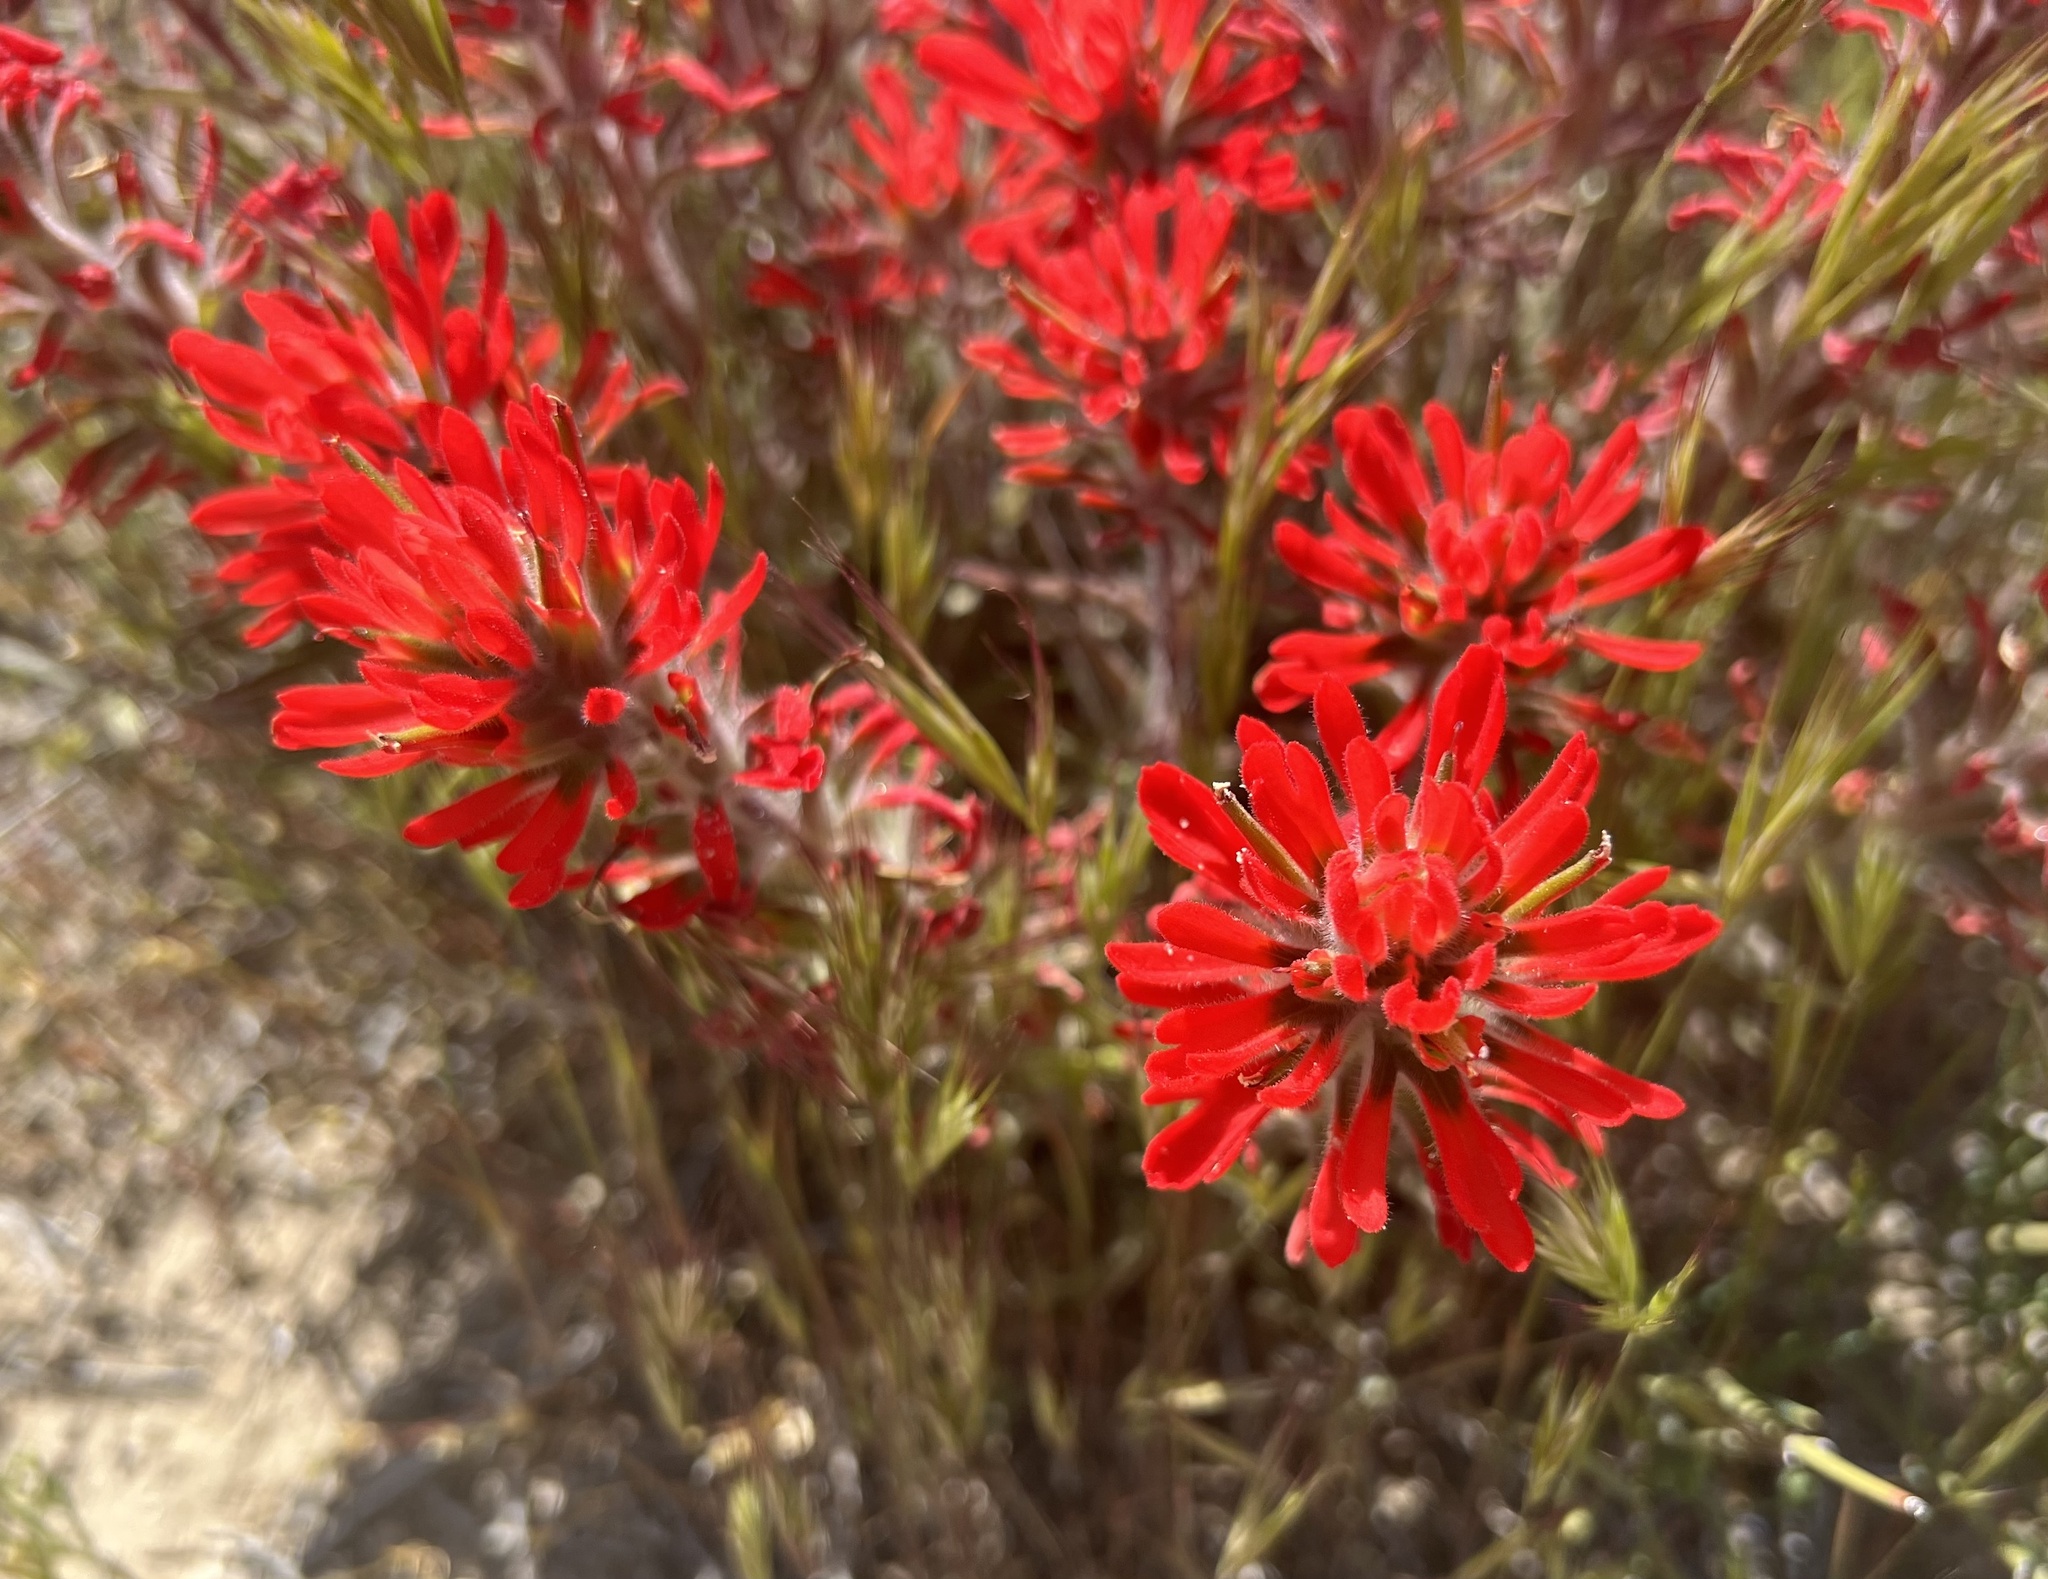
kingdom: Plantae
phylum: Tracheophyta
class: Magnoliopsida
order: Lamiales
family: Orobanchaceae
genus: Castilleja
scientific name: Castilleja chromosa
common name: Desert paintbrush
